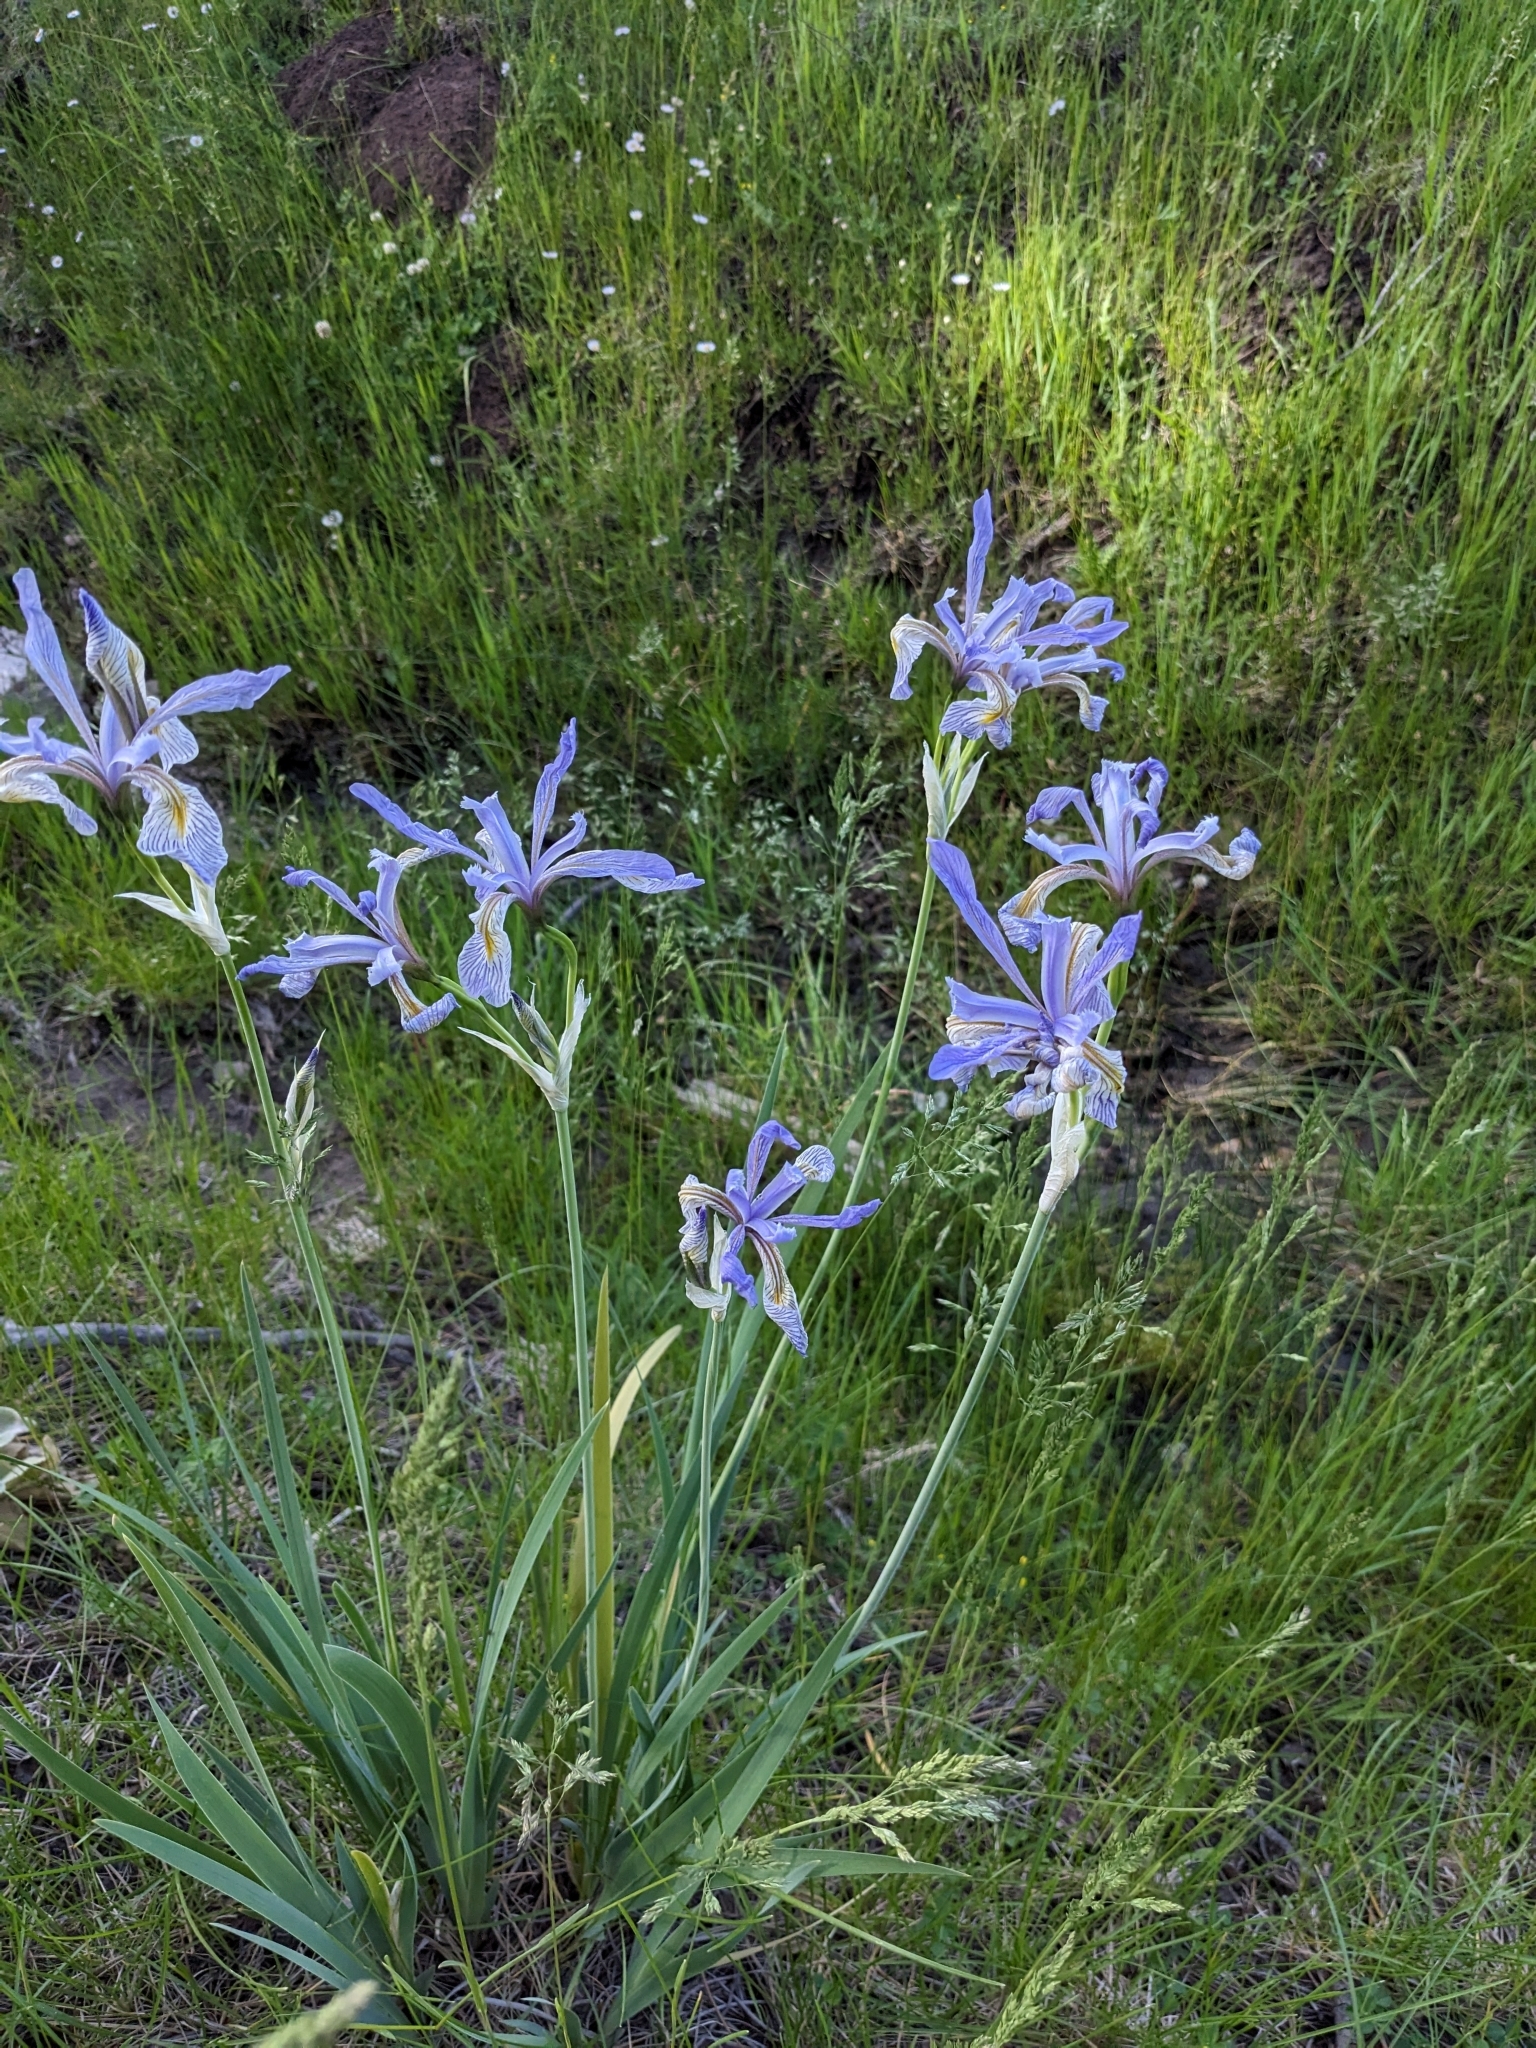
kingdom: Plantae
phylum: Tracheophyta
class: Liliopsida
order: Asparagales
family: Iridaceae
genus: Iris
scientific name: Iris missouriensis
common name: Rocky mountain iris
